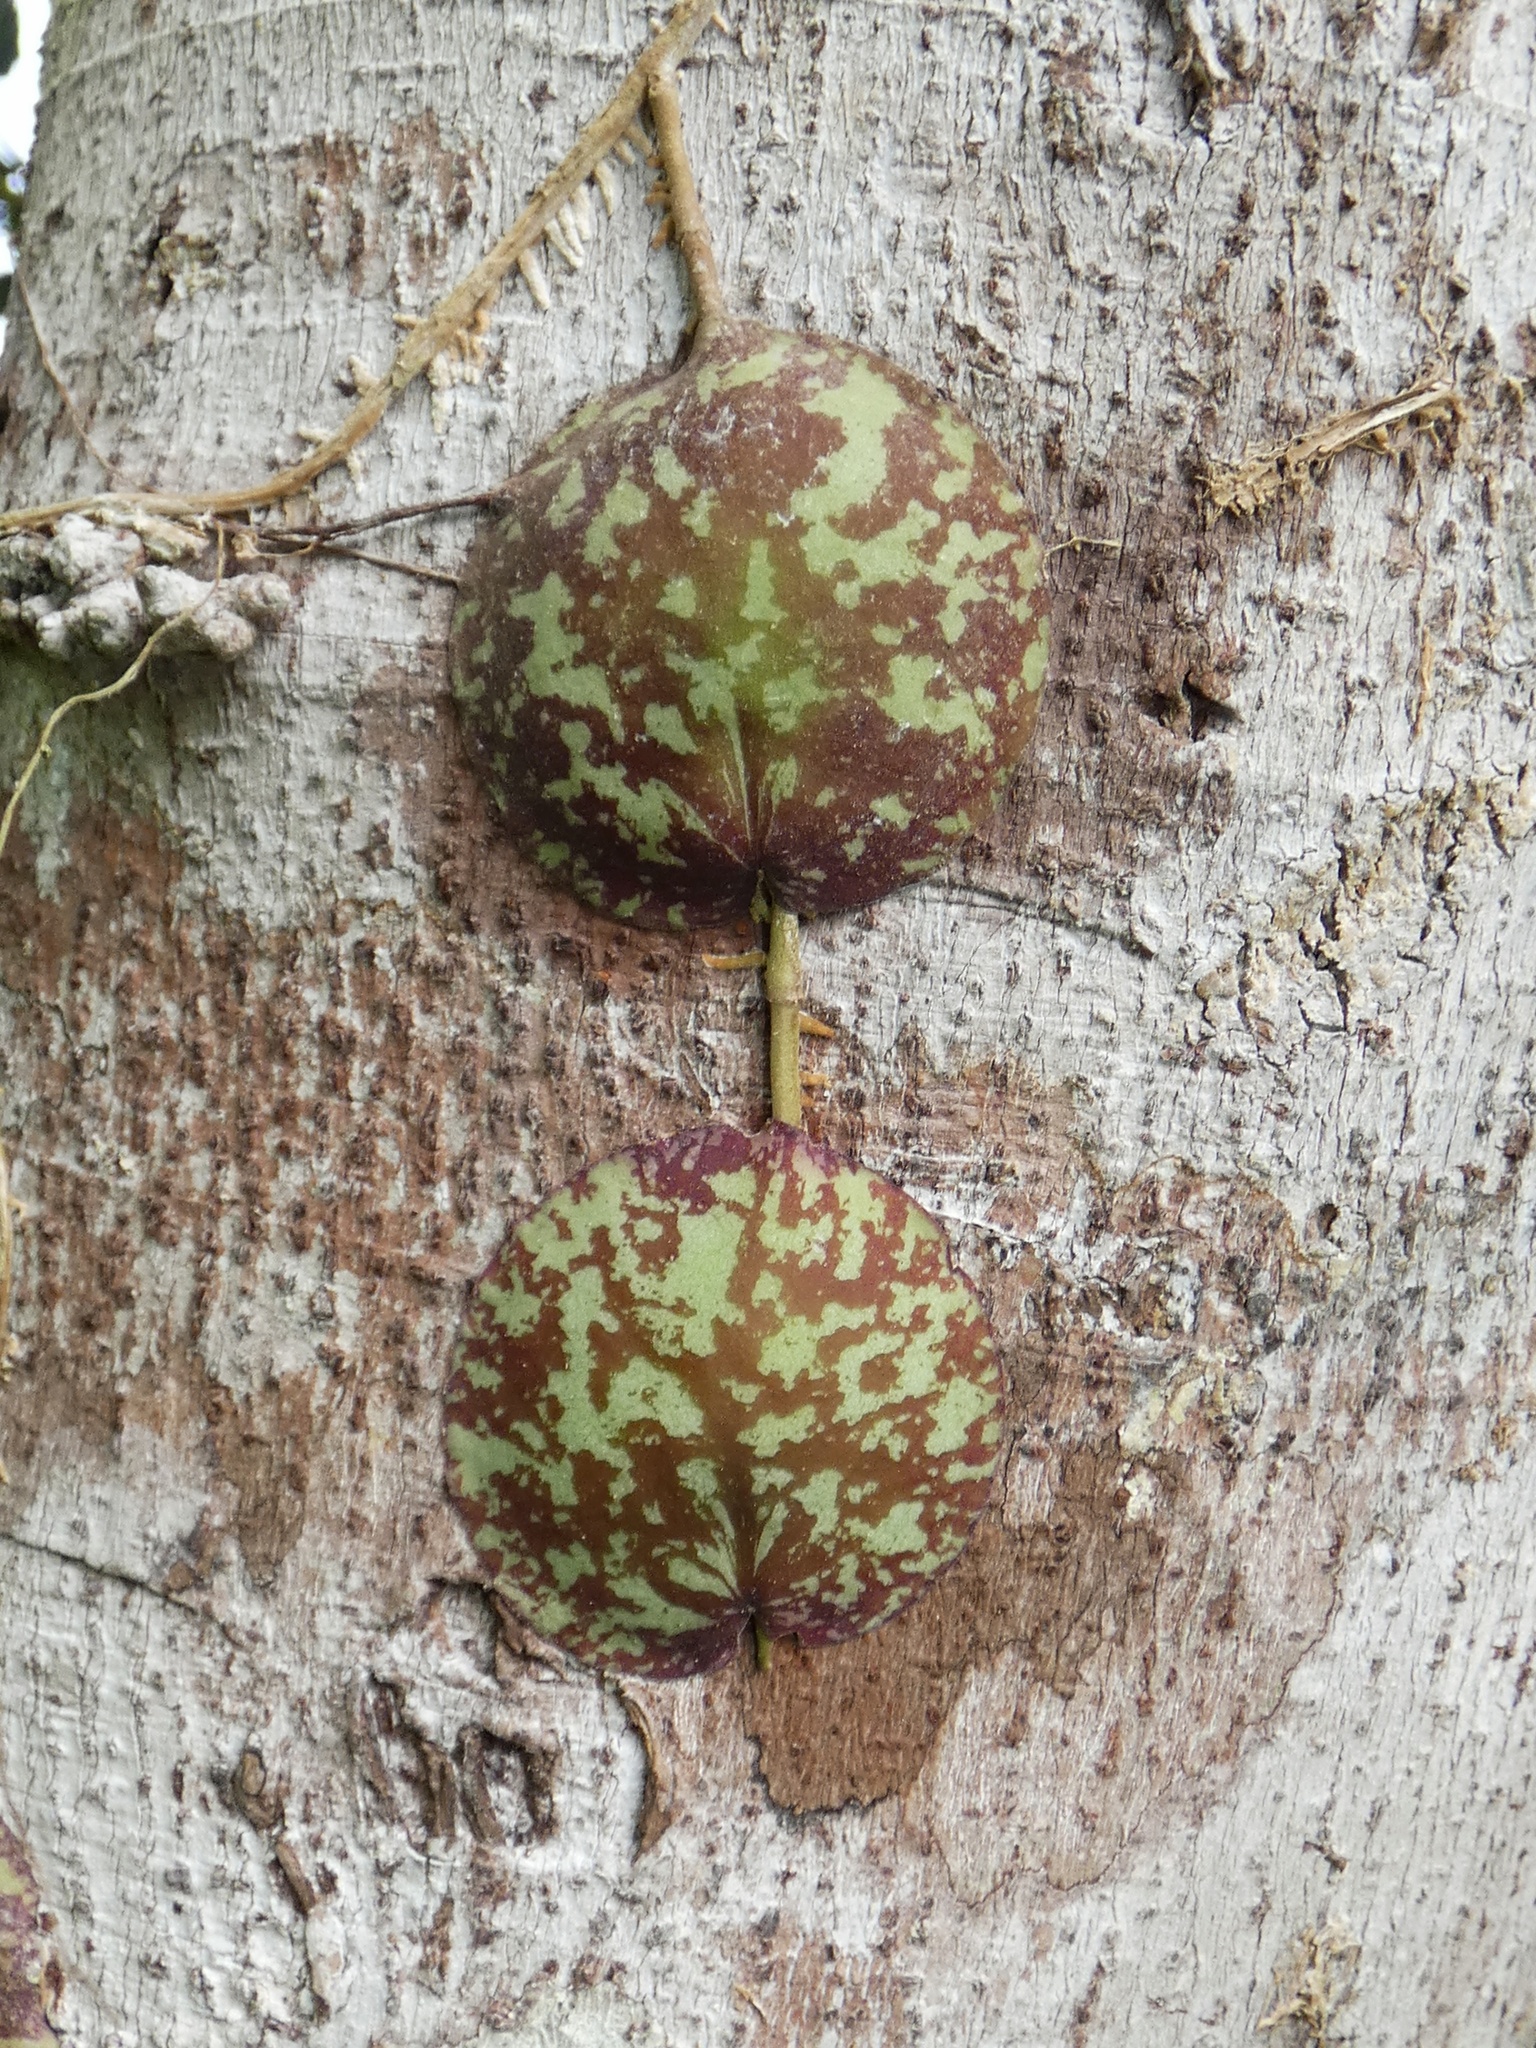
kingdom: Plantae
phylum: Tracheophyta
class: Magnoliopsida
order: Gentianales
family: Apocynaceae
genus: Hoya
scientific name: Hoya imbricata
